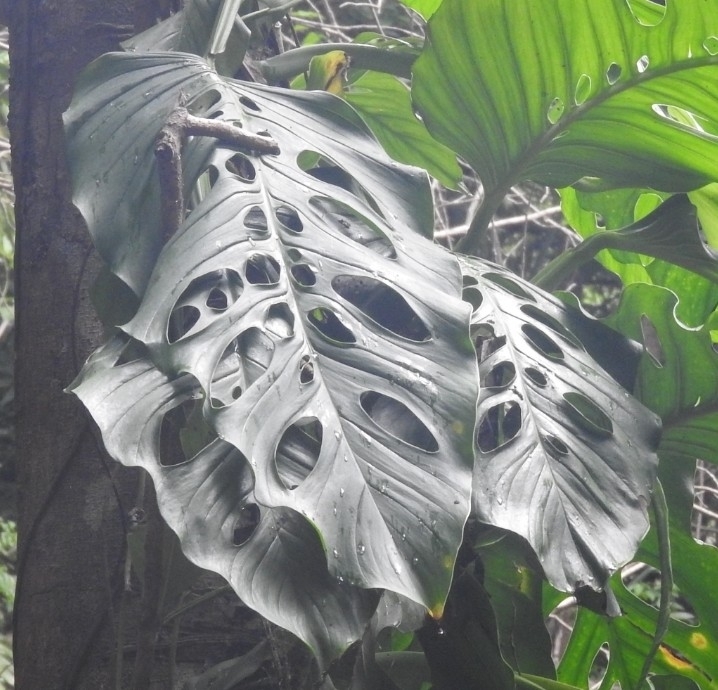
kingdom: Plantae
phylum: Tracheophyta
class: Liliopsida
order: Alismatales
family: Araceae
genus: Monstera
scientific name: Monstera acacoyaguensis
